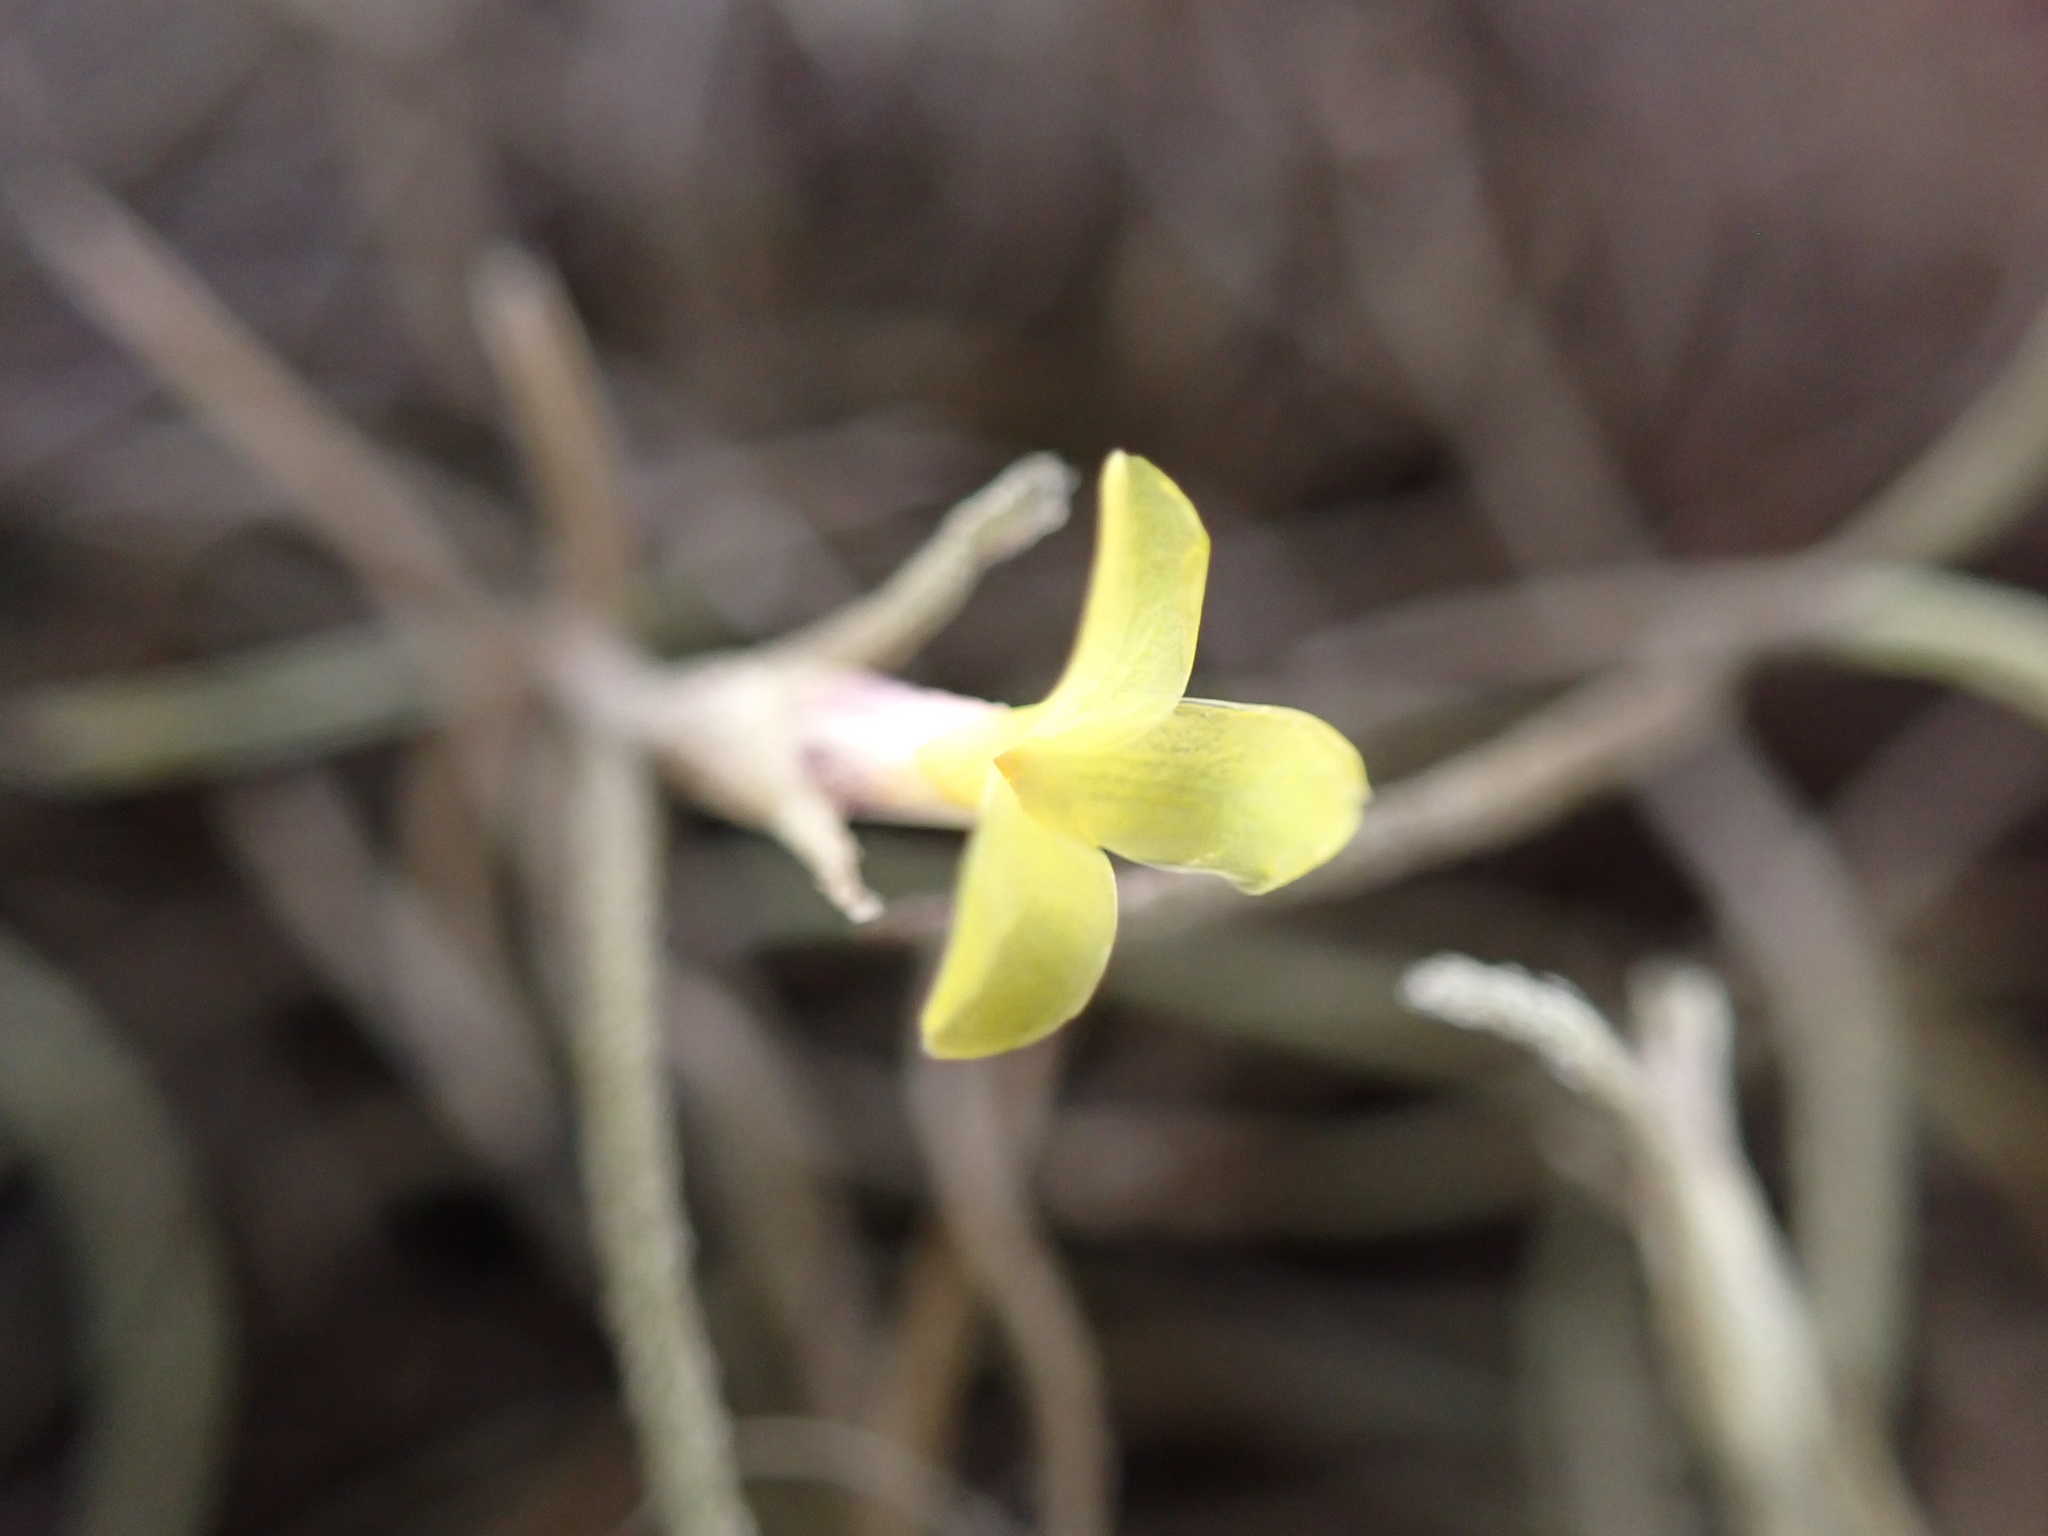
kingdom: Plantae
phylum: Tracheophyta
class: Liliopsida
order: Poales
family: Bromeliaceae
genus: Tillandsia
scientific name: Tillandsia usneoides
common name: Spanish moss
